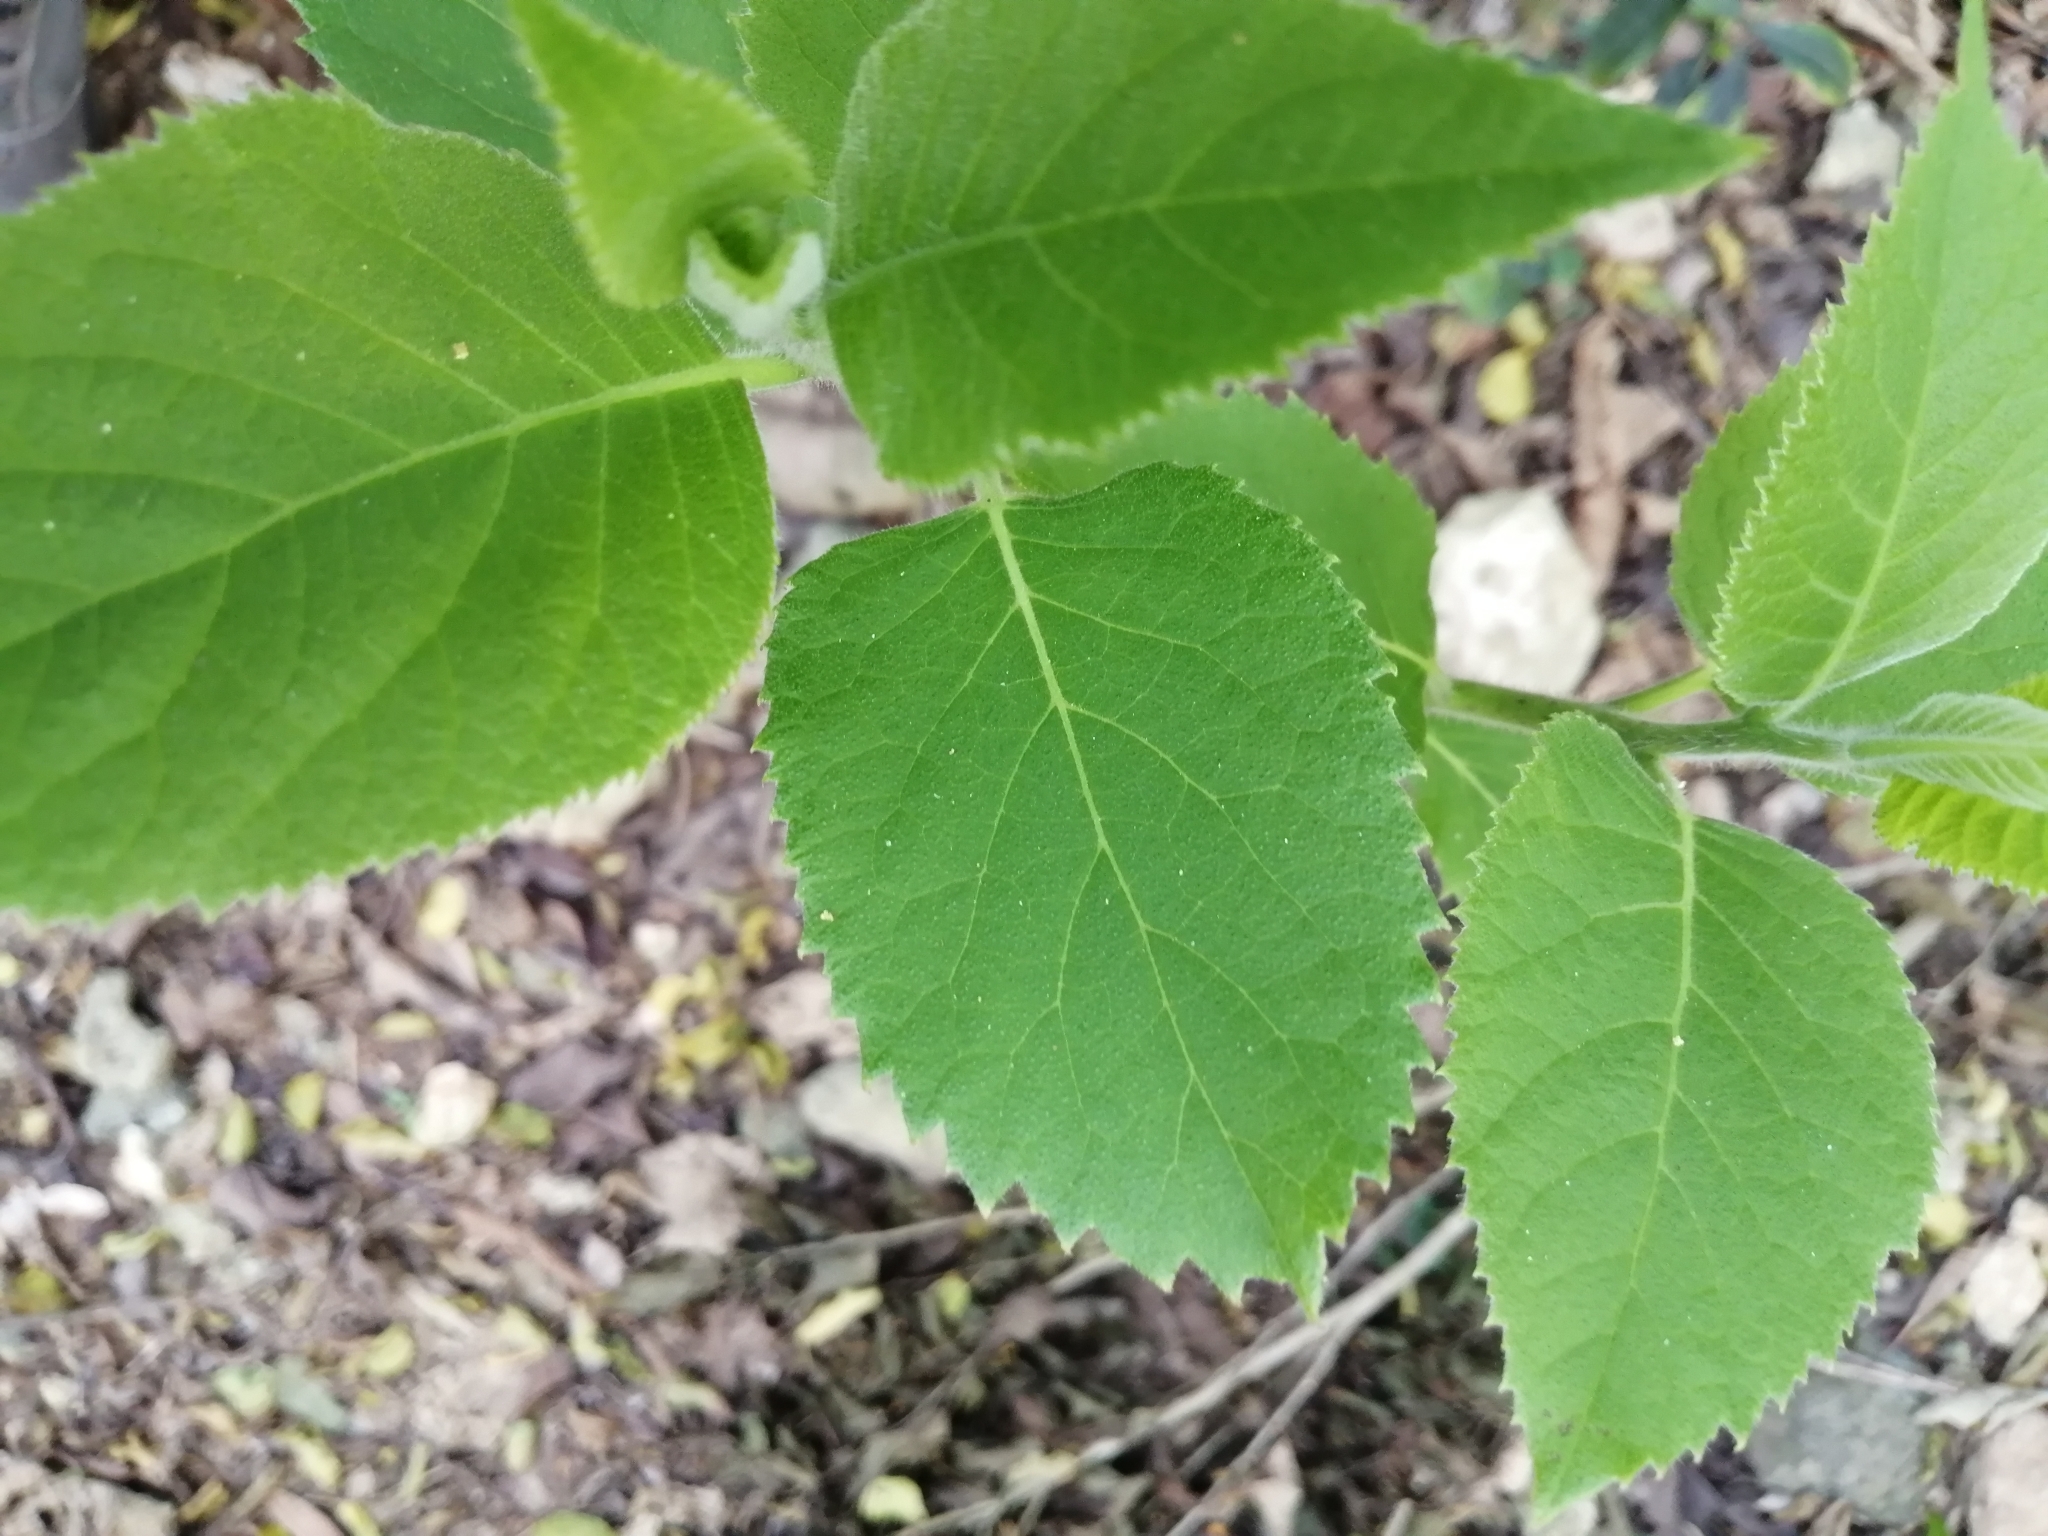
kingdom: Plantae
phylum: Tracheophyta
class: Magnoliopsida
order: Boraginales
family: Ehretiaceae
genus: Ehretia
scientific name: Ehretia dicksonii
